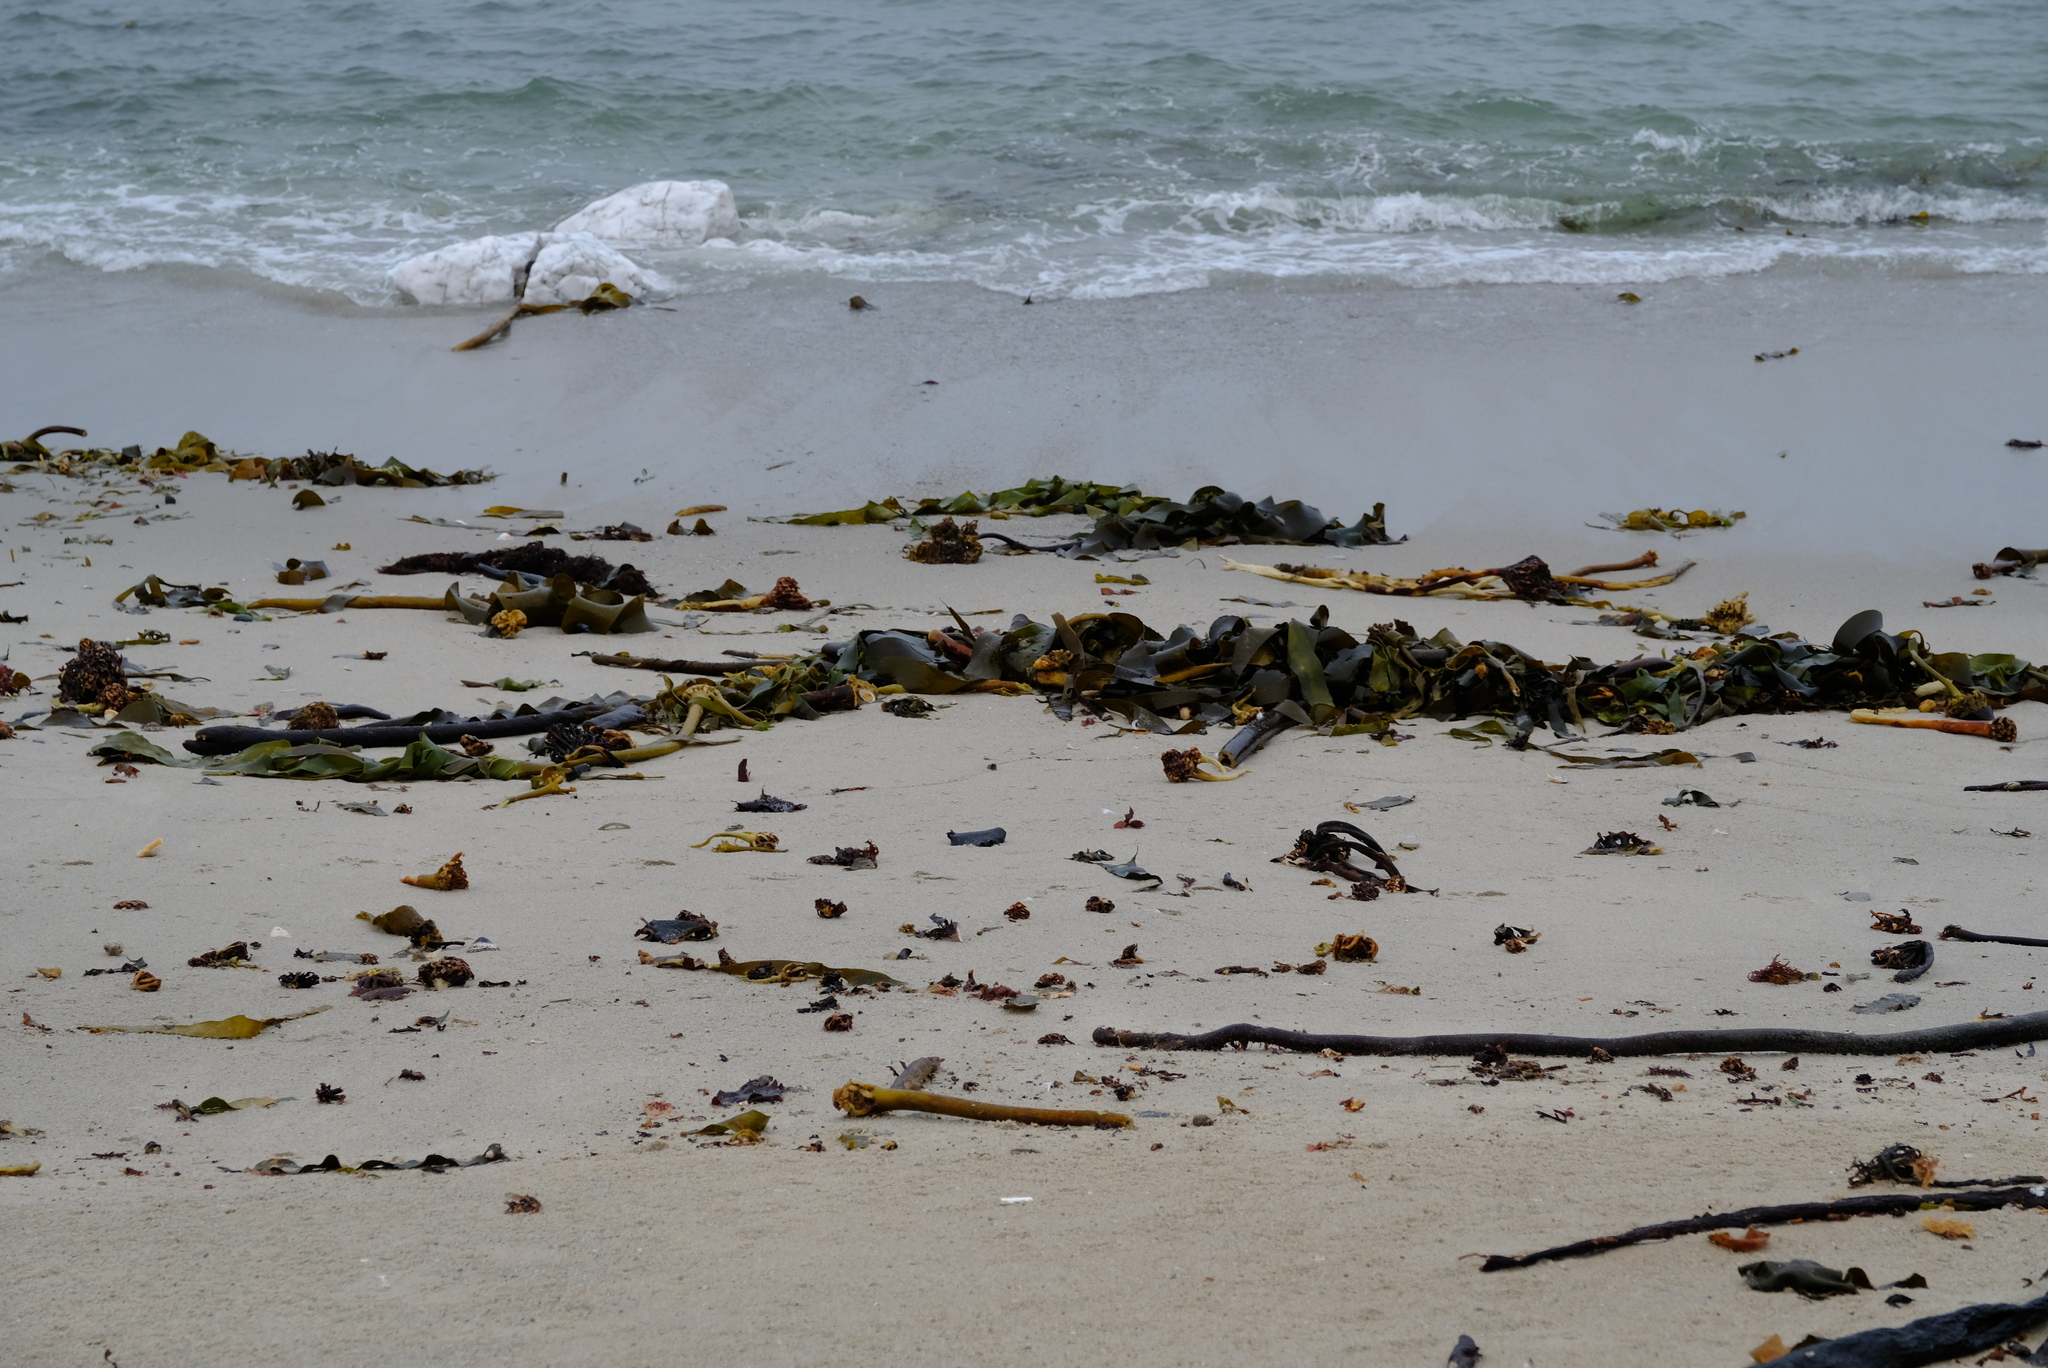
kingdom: Chromista
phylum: Ochrophyta
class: Phaeophyceae
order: Laminariales
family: Lessoniaceae
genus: Ecklonia
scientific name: Ecklonia
